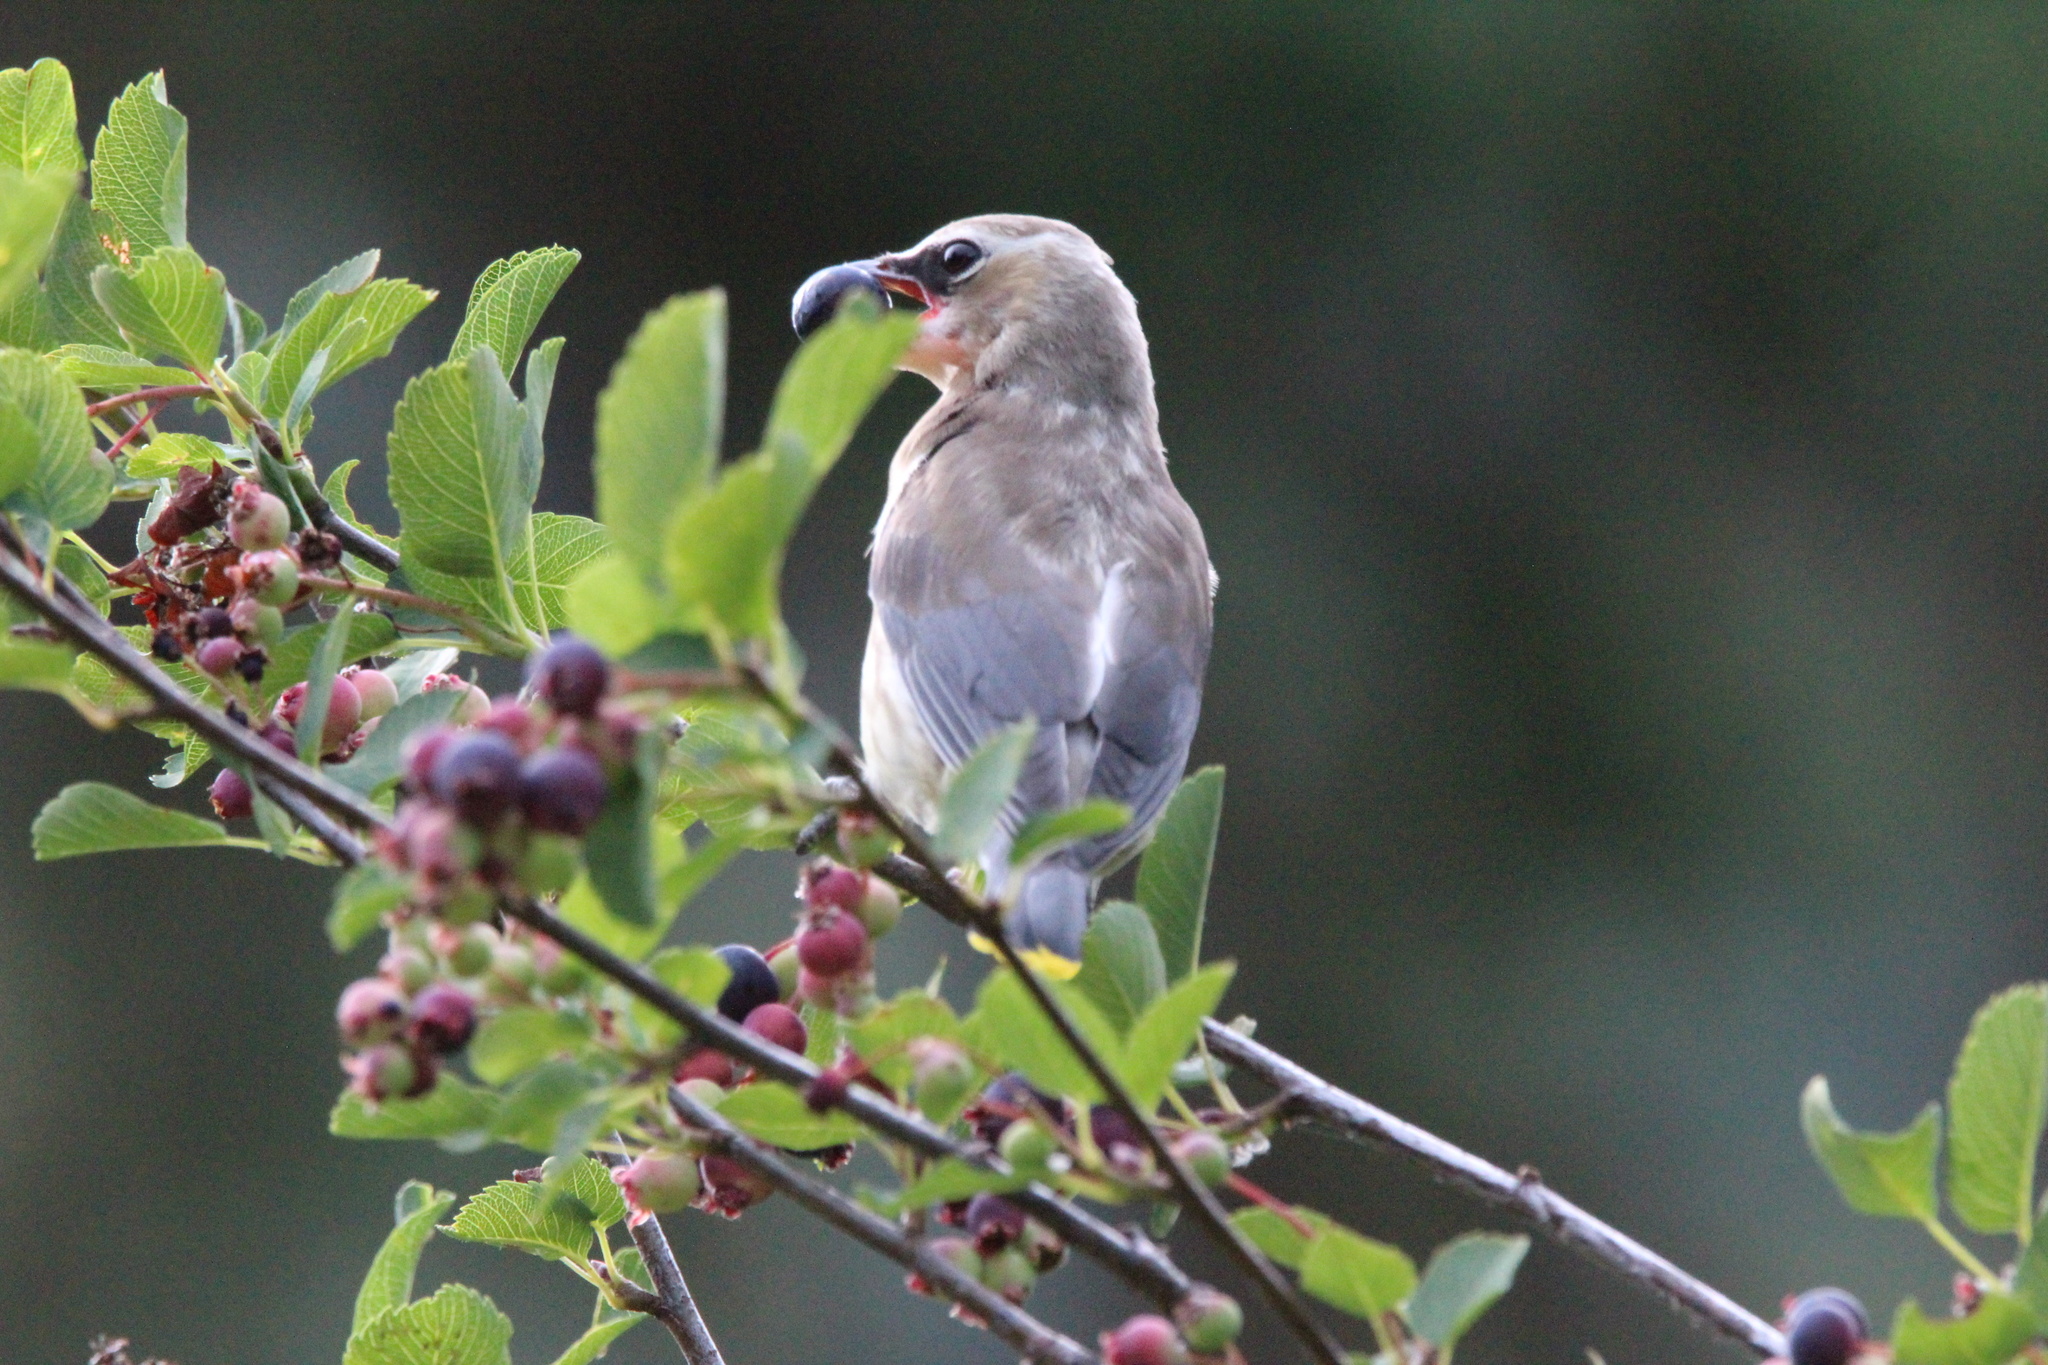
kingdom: Animalia
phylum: Chordata
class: Aves
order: Passeriformes
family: Bombycillidae
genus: Bombycilla
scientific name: Bombycilla cedrorum
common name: Cedar waxwing
